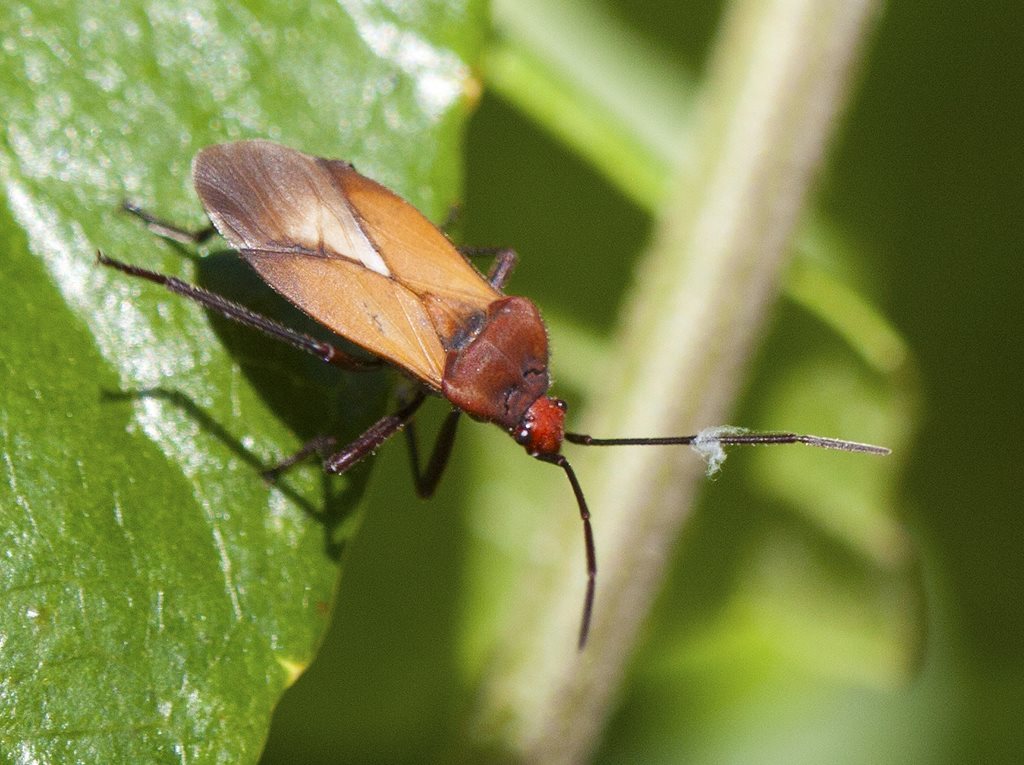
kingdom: Animalia
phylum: Arthropoda
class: Insecta
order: Hemiptera
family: Lygaeidae
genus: Oncopeltus
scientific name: Oncopeltus sordidus
